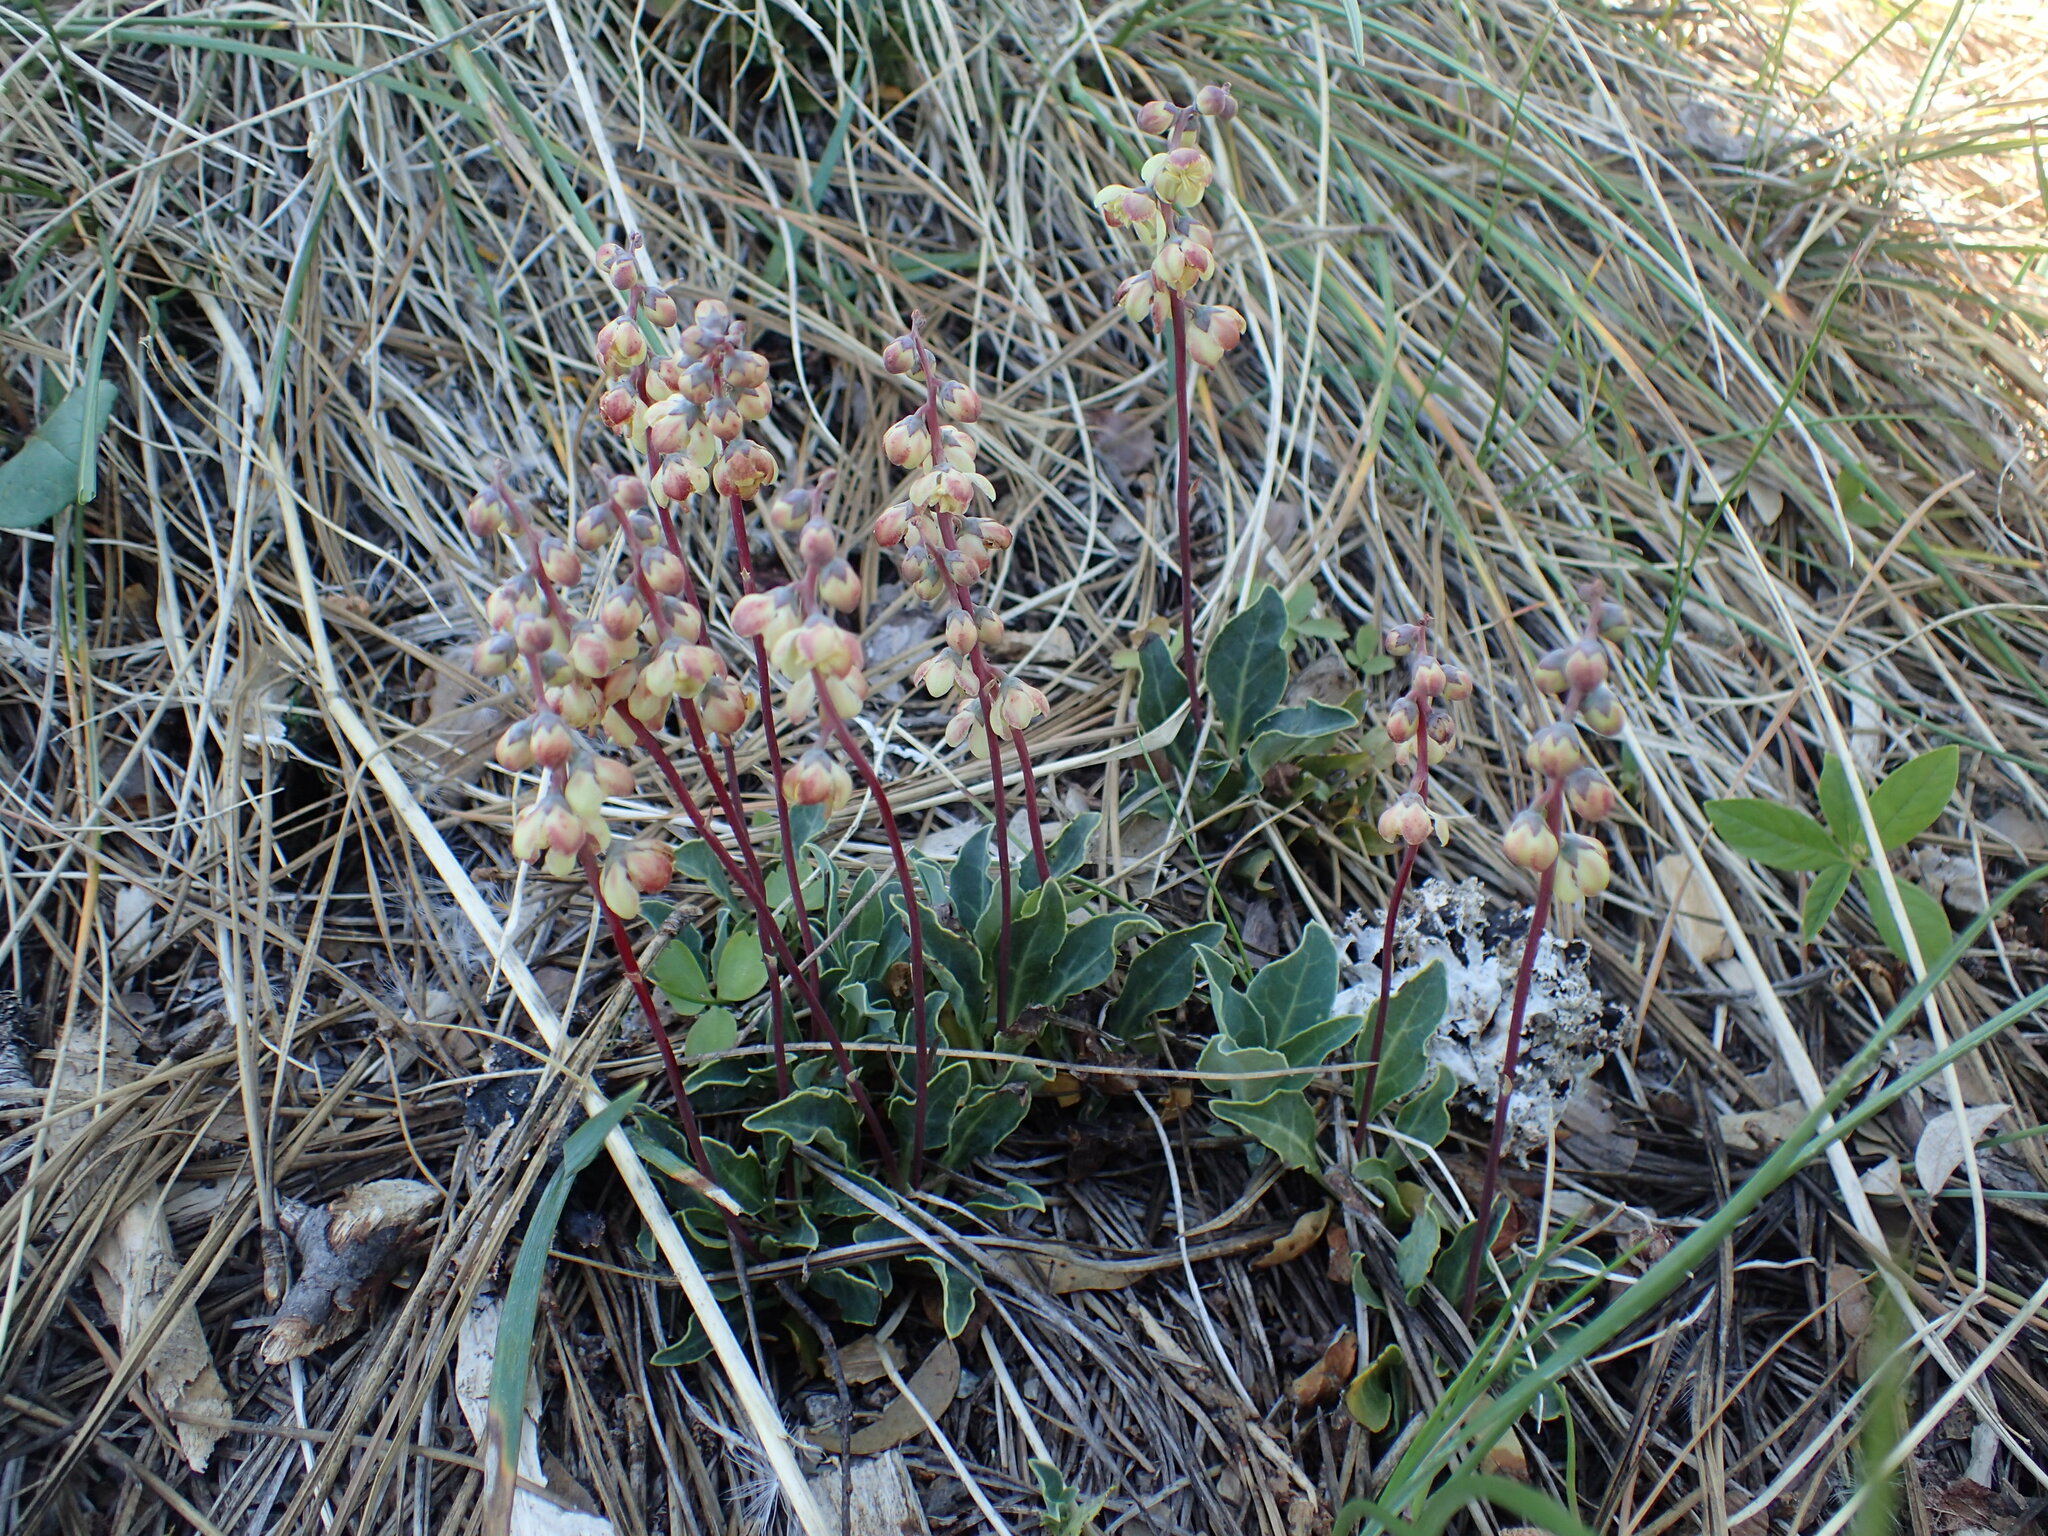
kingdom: Plantae
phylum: Tracheophyta
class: Magnoliopsida
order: Ericales
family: Ericaceae
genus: Pyrola
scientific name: Pyrola dentata
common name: Tooth-leaved wintergreen
